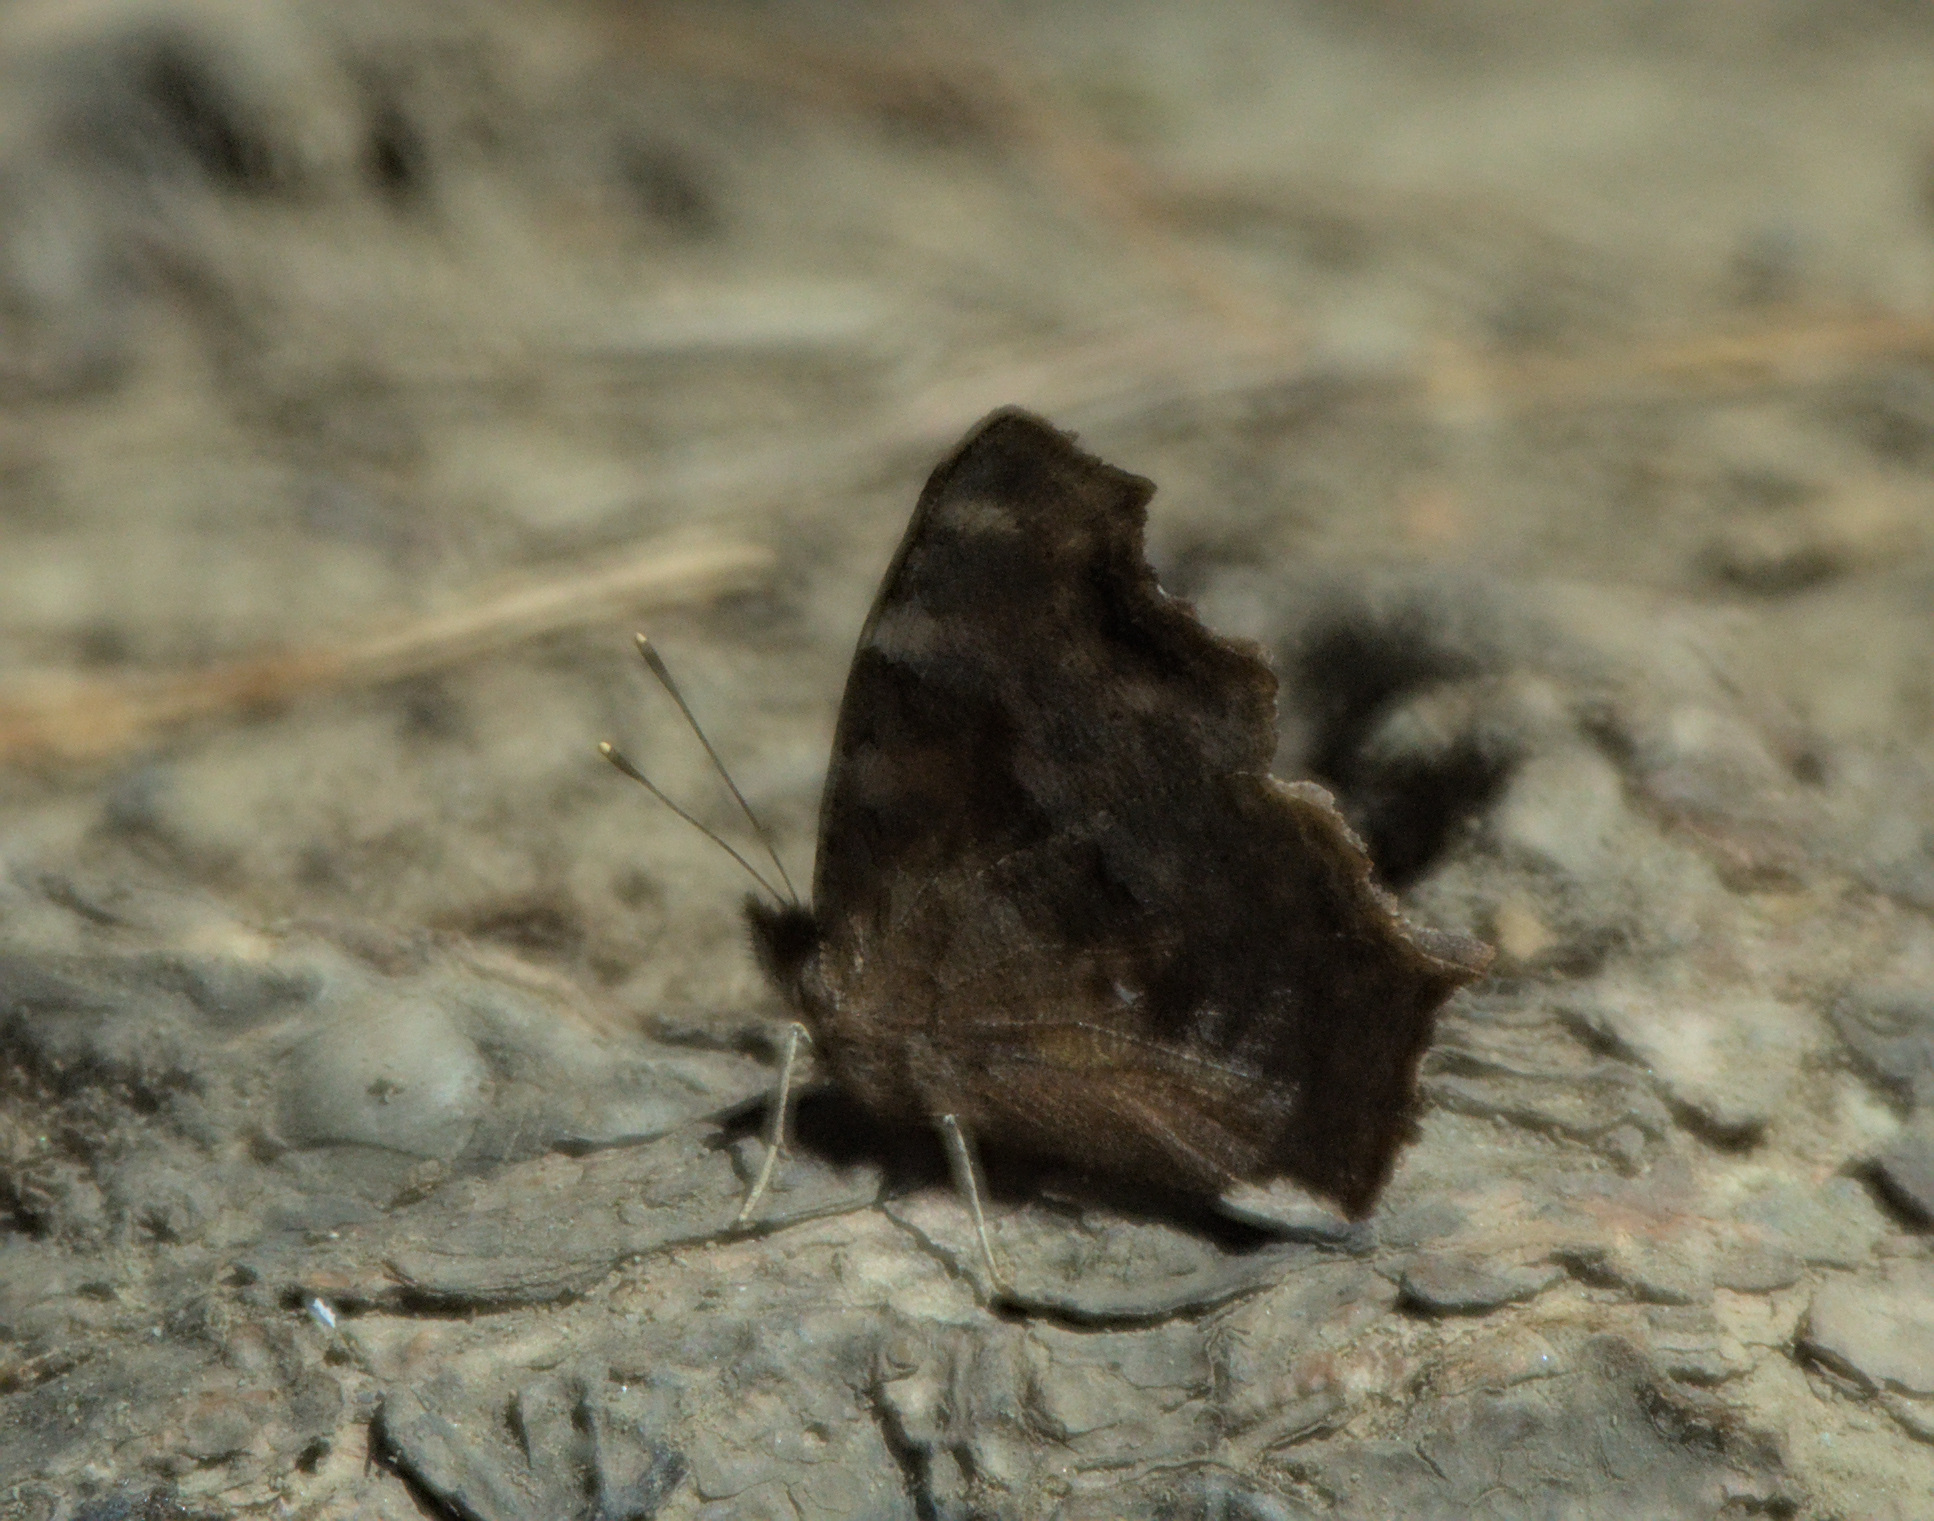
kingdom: Animalia
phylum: Arthropoda
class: Insecta
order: Lepidoptera
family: Nymphalidae
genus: Polygonia
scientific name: Polygonia vaualbum
